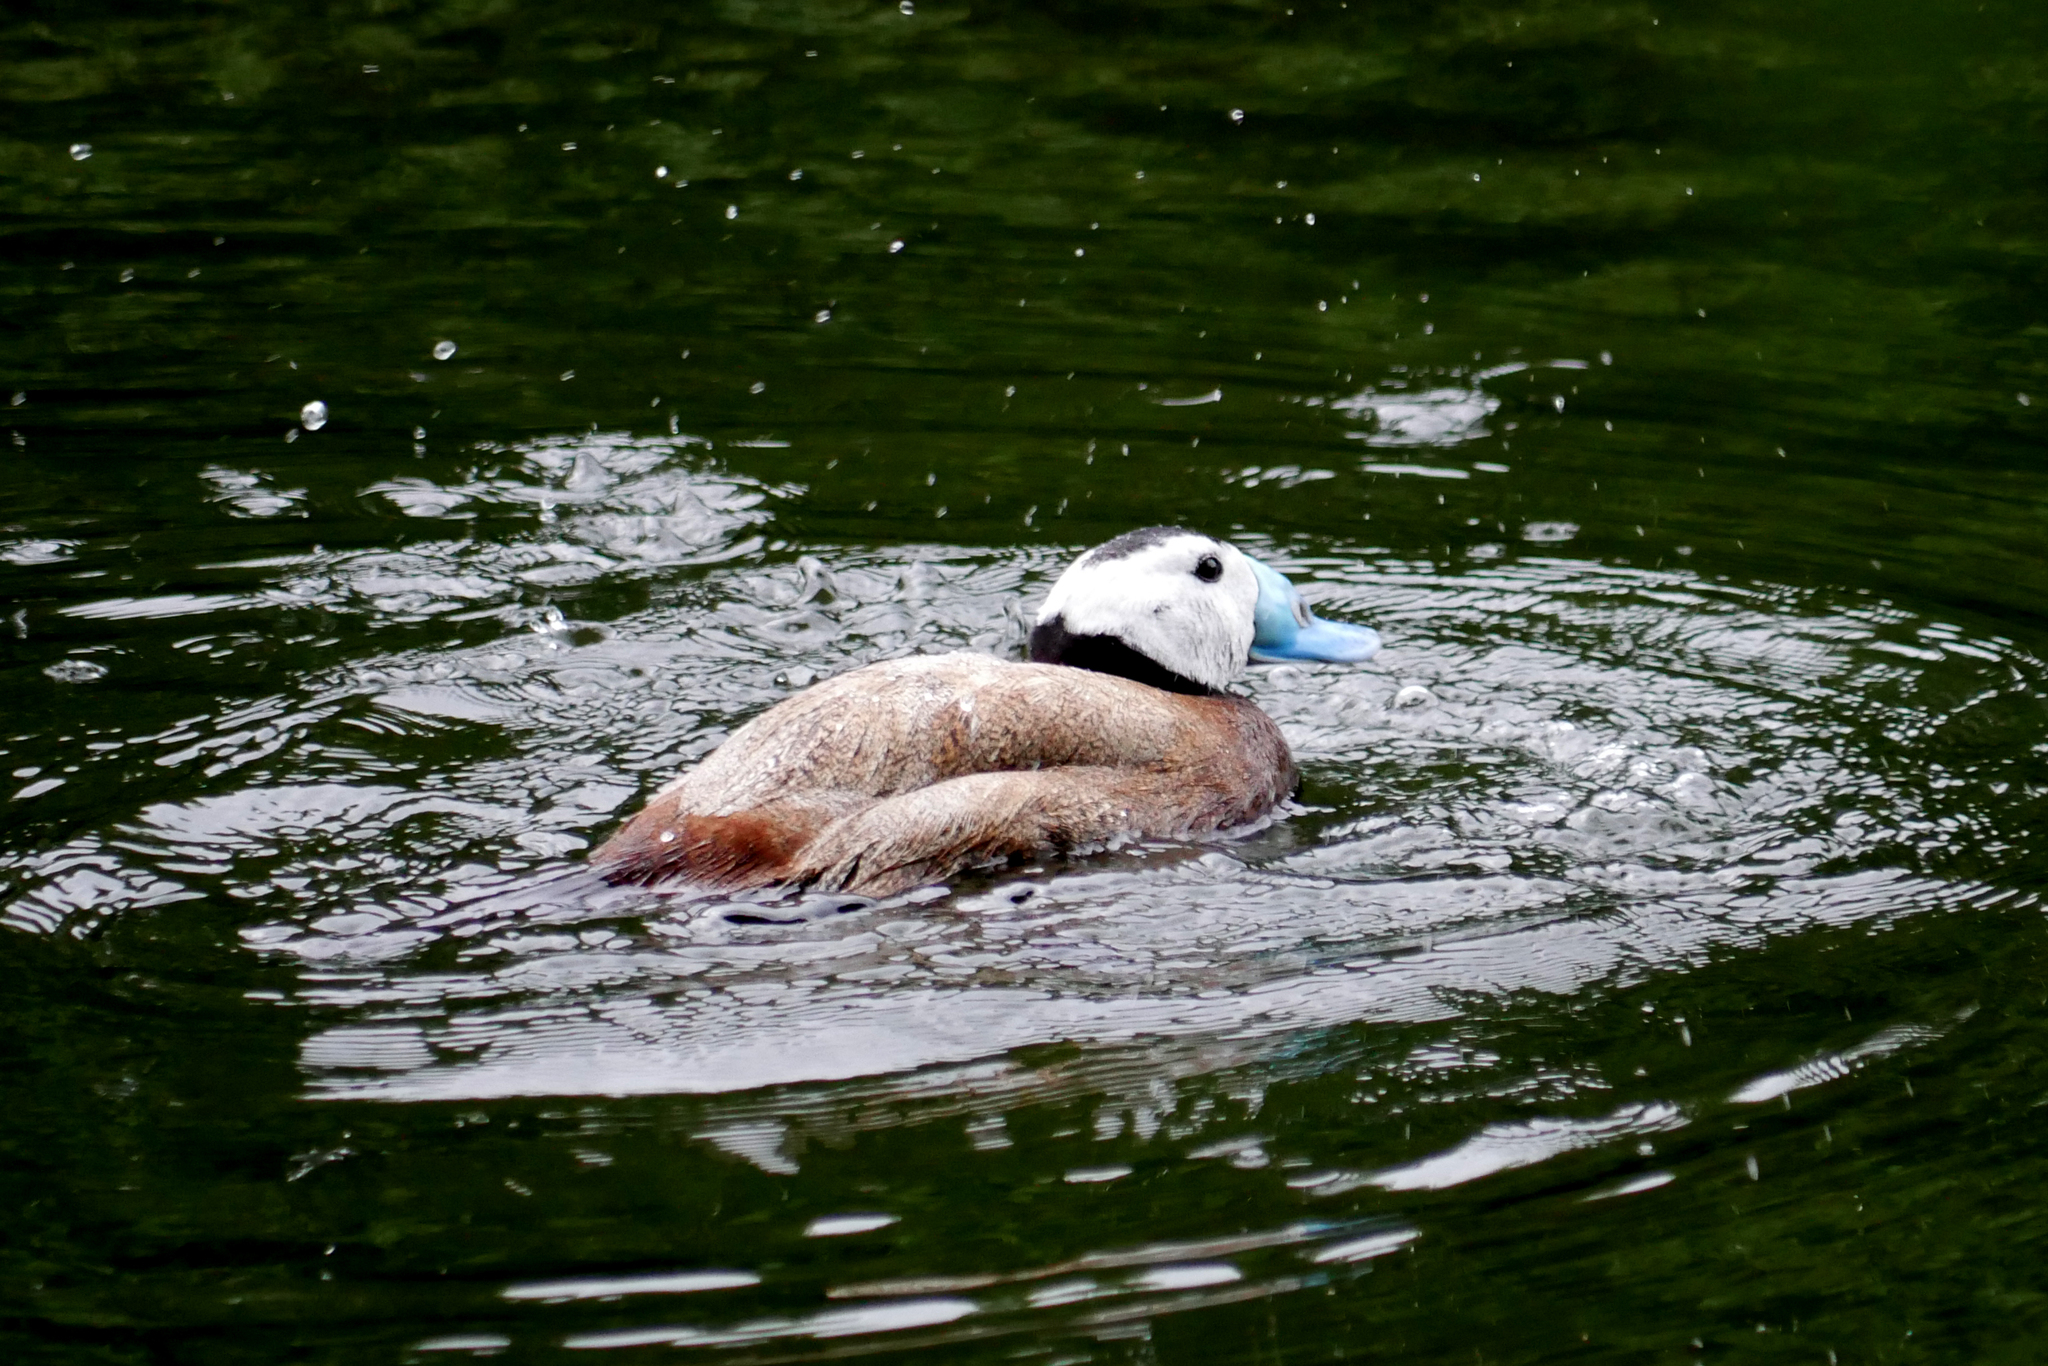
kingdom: Animalia
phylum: Chordata
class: Aves
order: Anseriformes
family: Anatidae
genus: Oxyura
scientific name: Oxyura leucocephala
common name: White-headed duck
